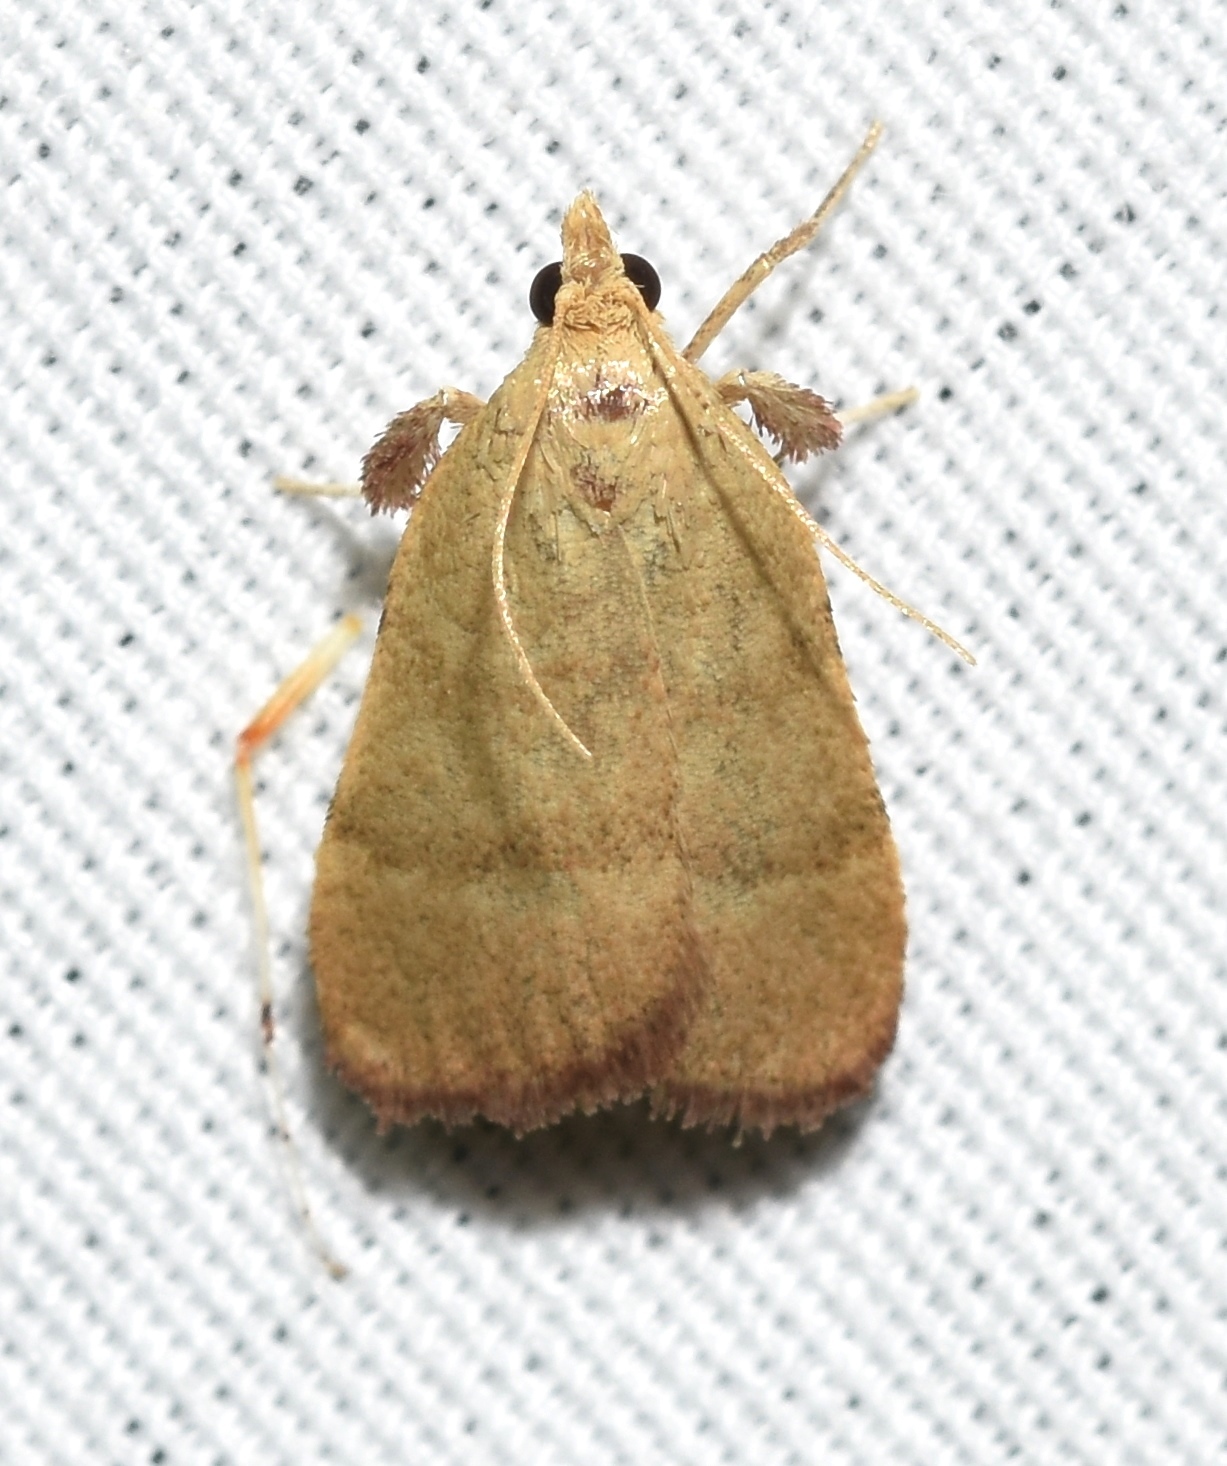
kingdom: Animalia
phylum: Arthropoda
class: Insecta
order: Lepidoptera
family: Pyralidae
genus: Condylolomia
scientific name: Condylolomia participialis
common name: Drab condylolomia moth
